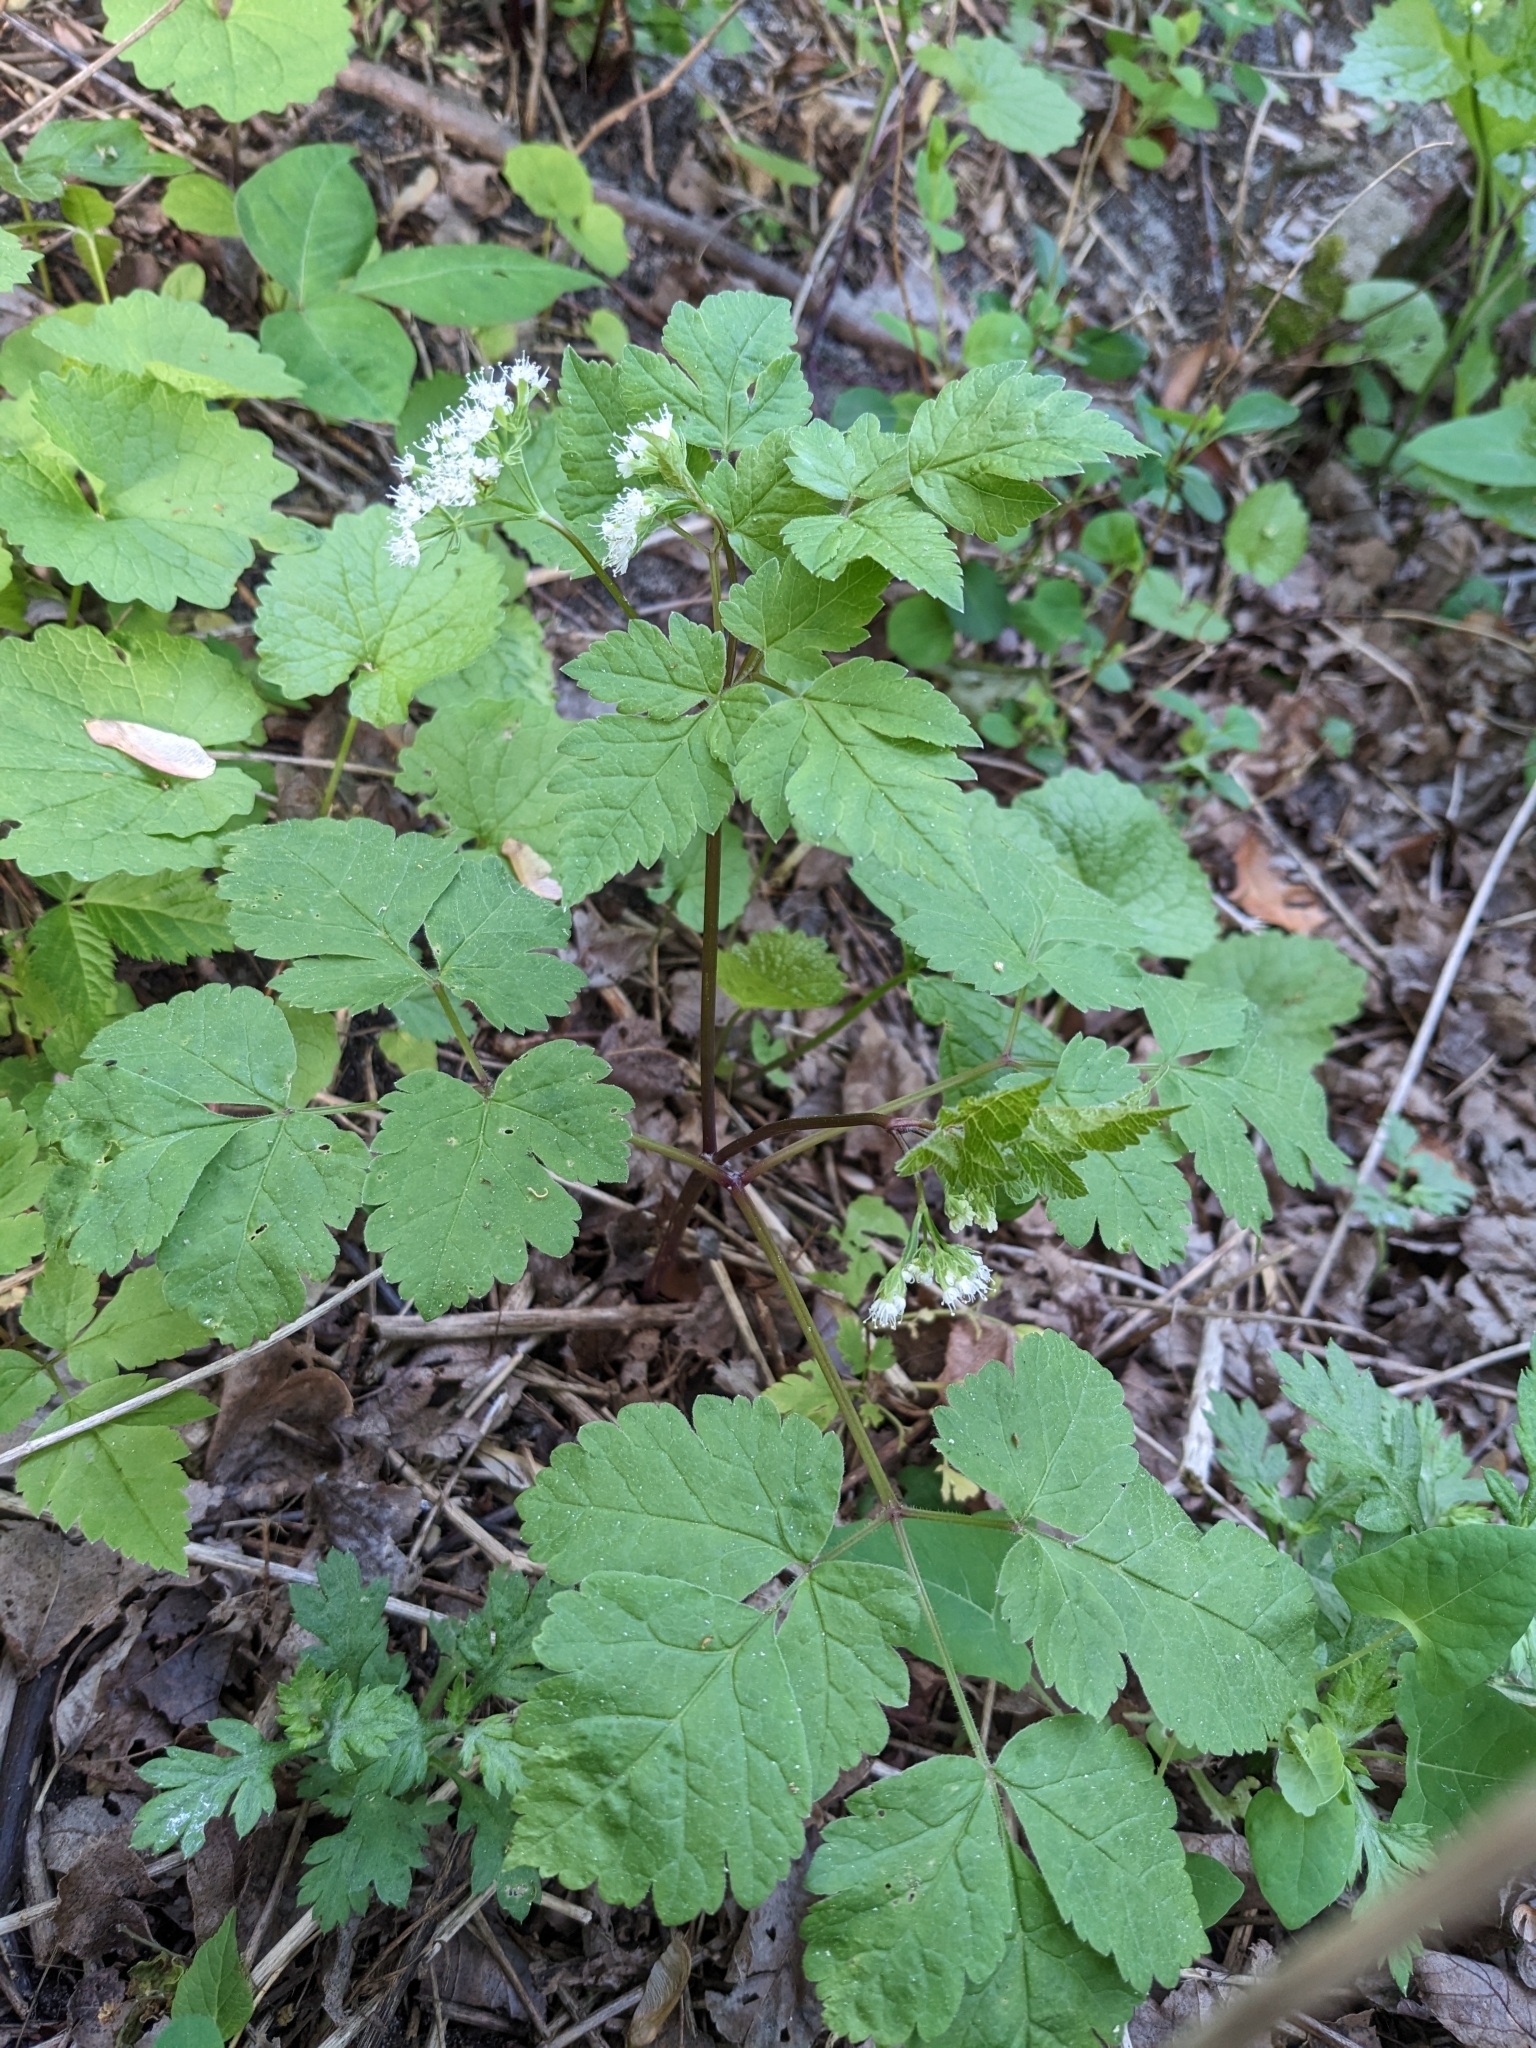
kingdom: Plantae
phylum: Tracheophyta
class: Magnoliopsida
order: Apiales
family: Apiaceae
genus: Osmorhiza
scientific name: Osmorhiza longistylis
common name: Smooth sweet cicely
